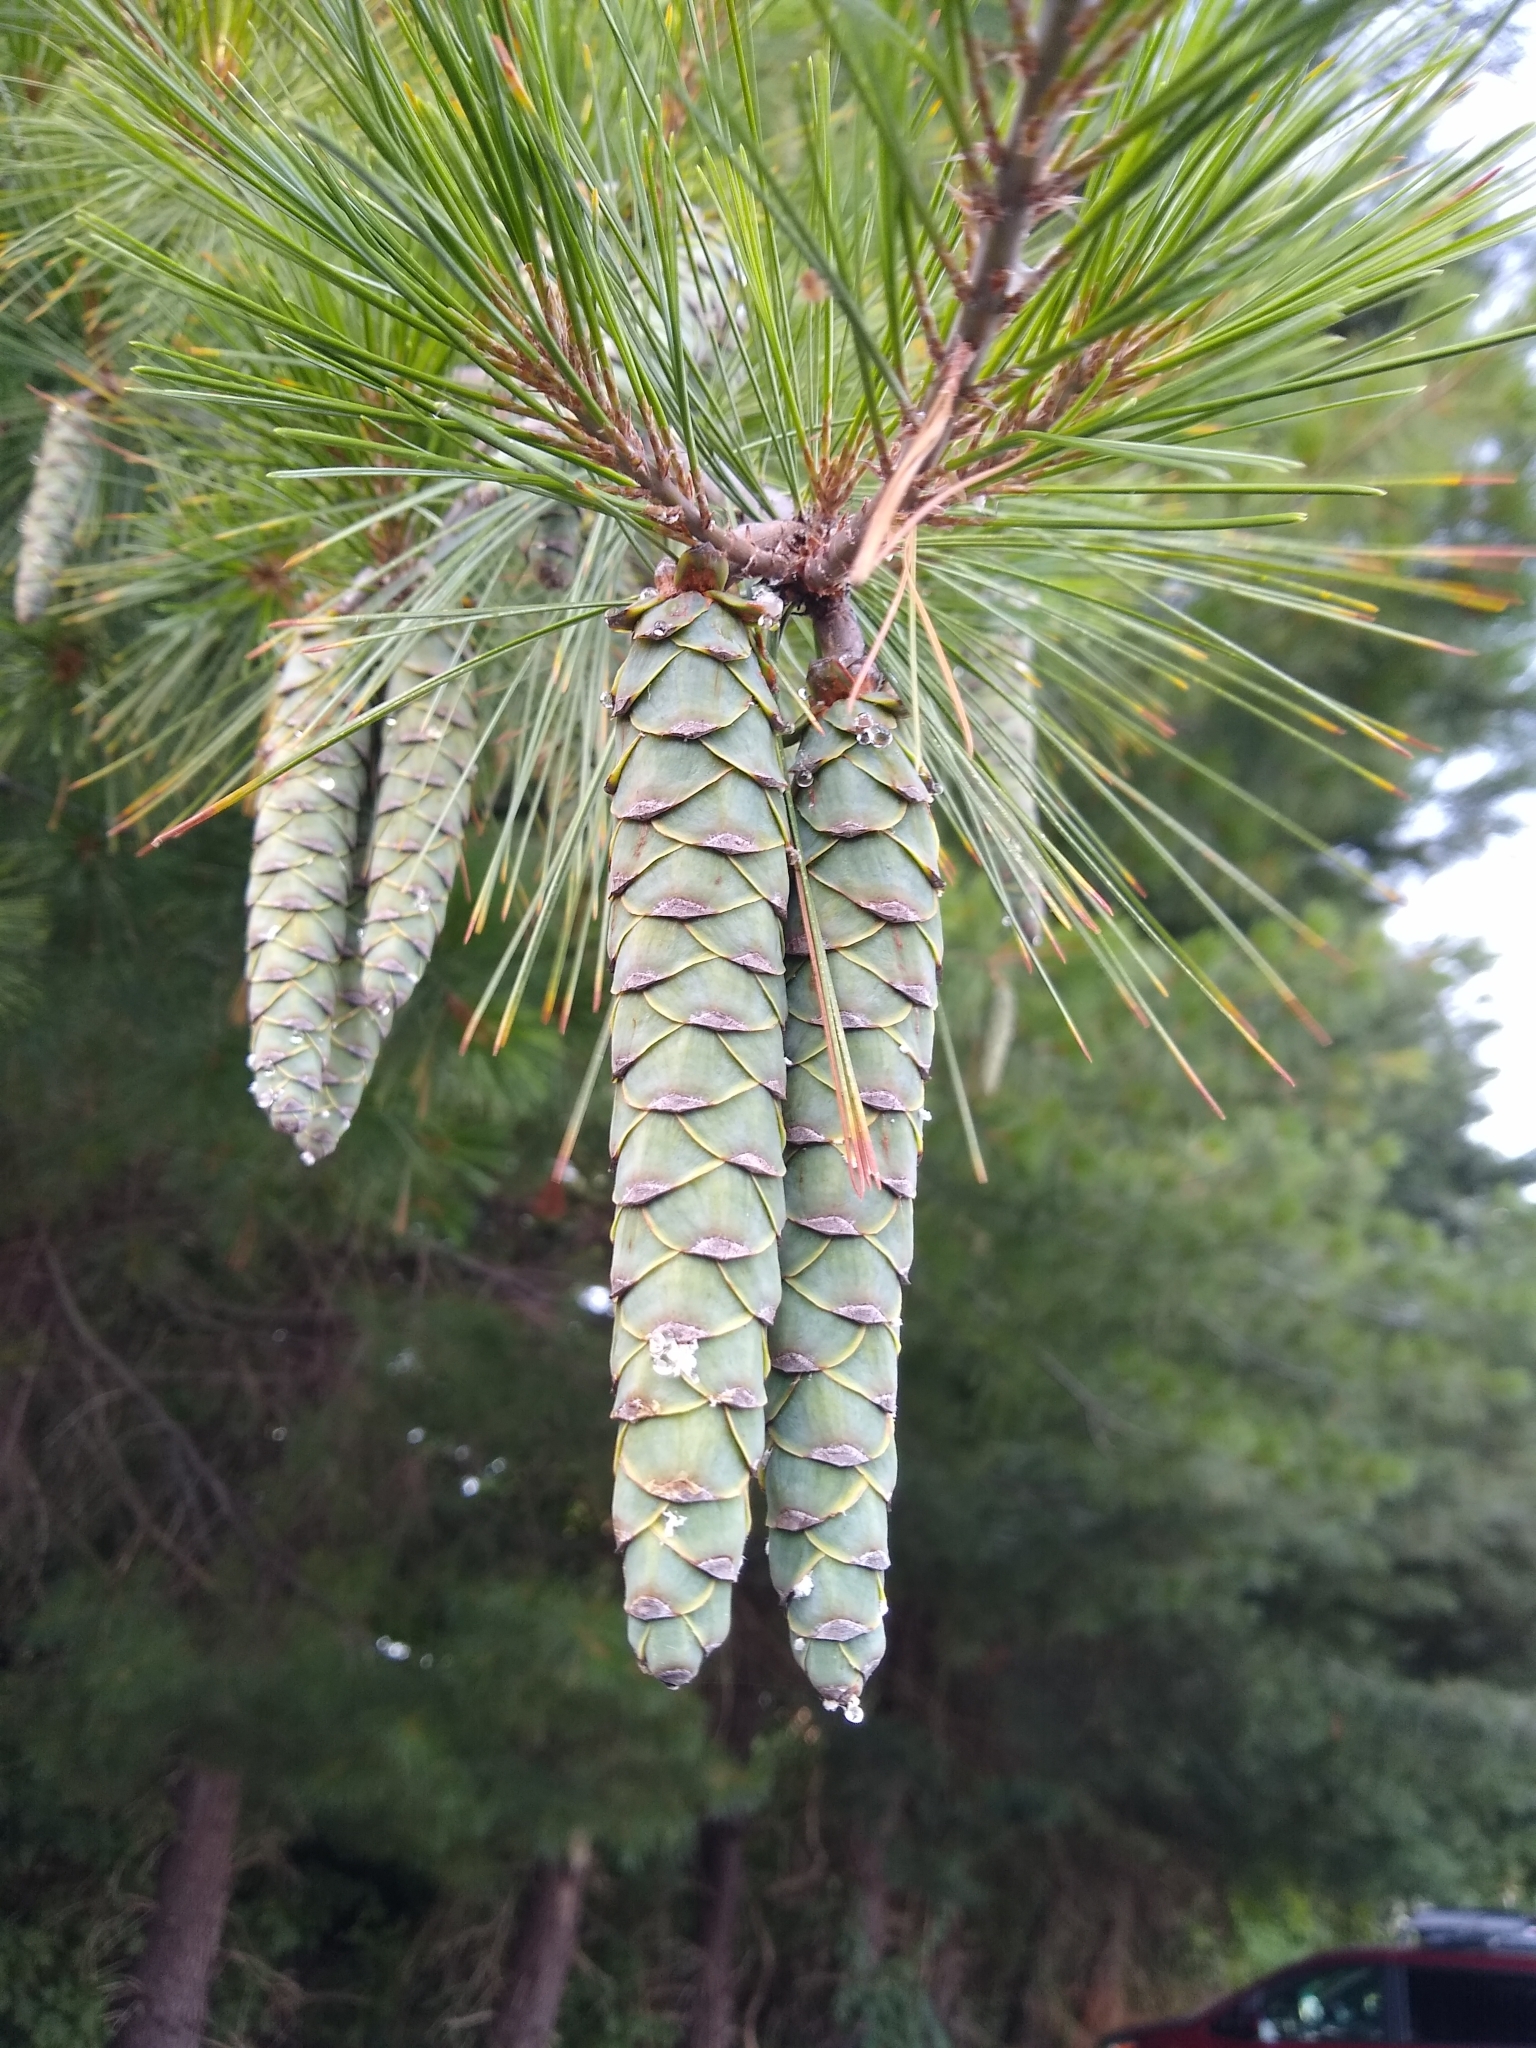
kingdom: Plantae
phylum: Tracheophyta
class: Pinopsida
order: Pinales
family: Pinaceae
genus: Pinus
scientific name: Pinus strobus
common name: Weymouth pine
